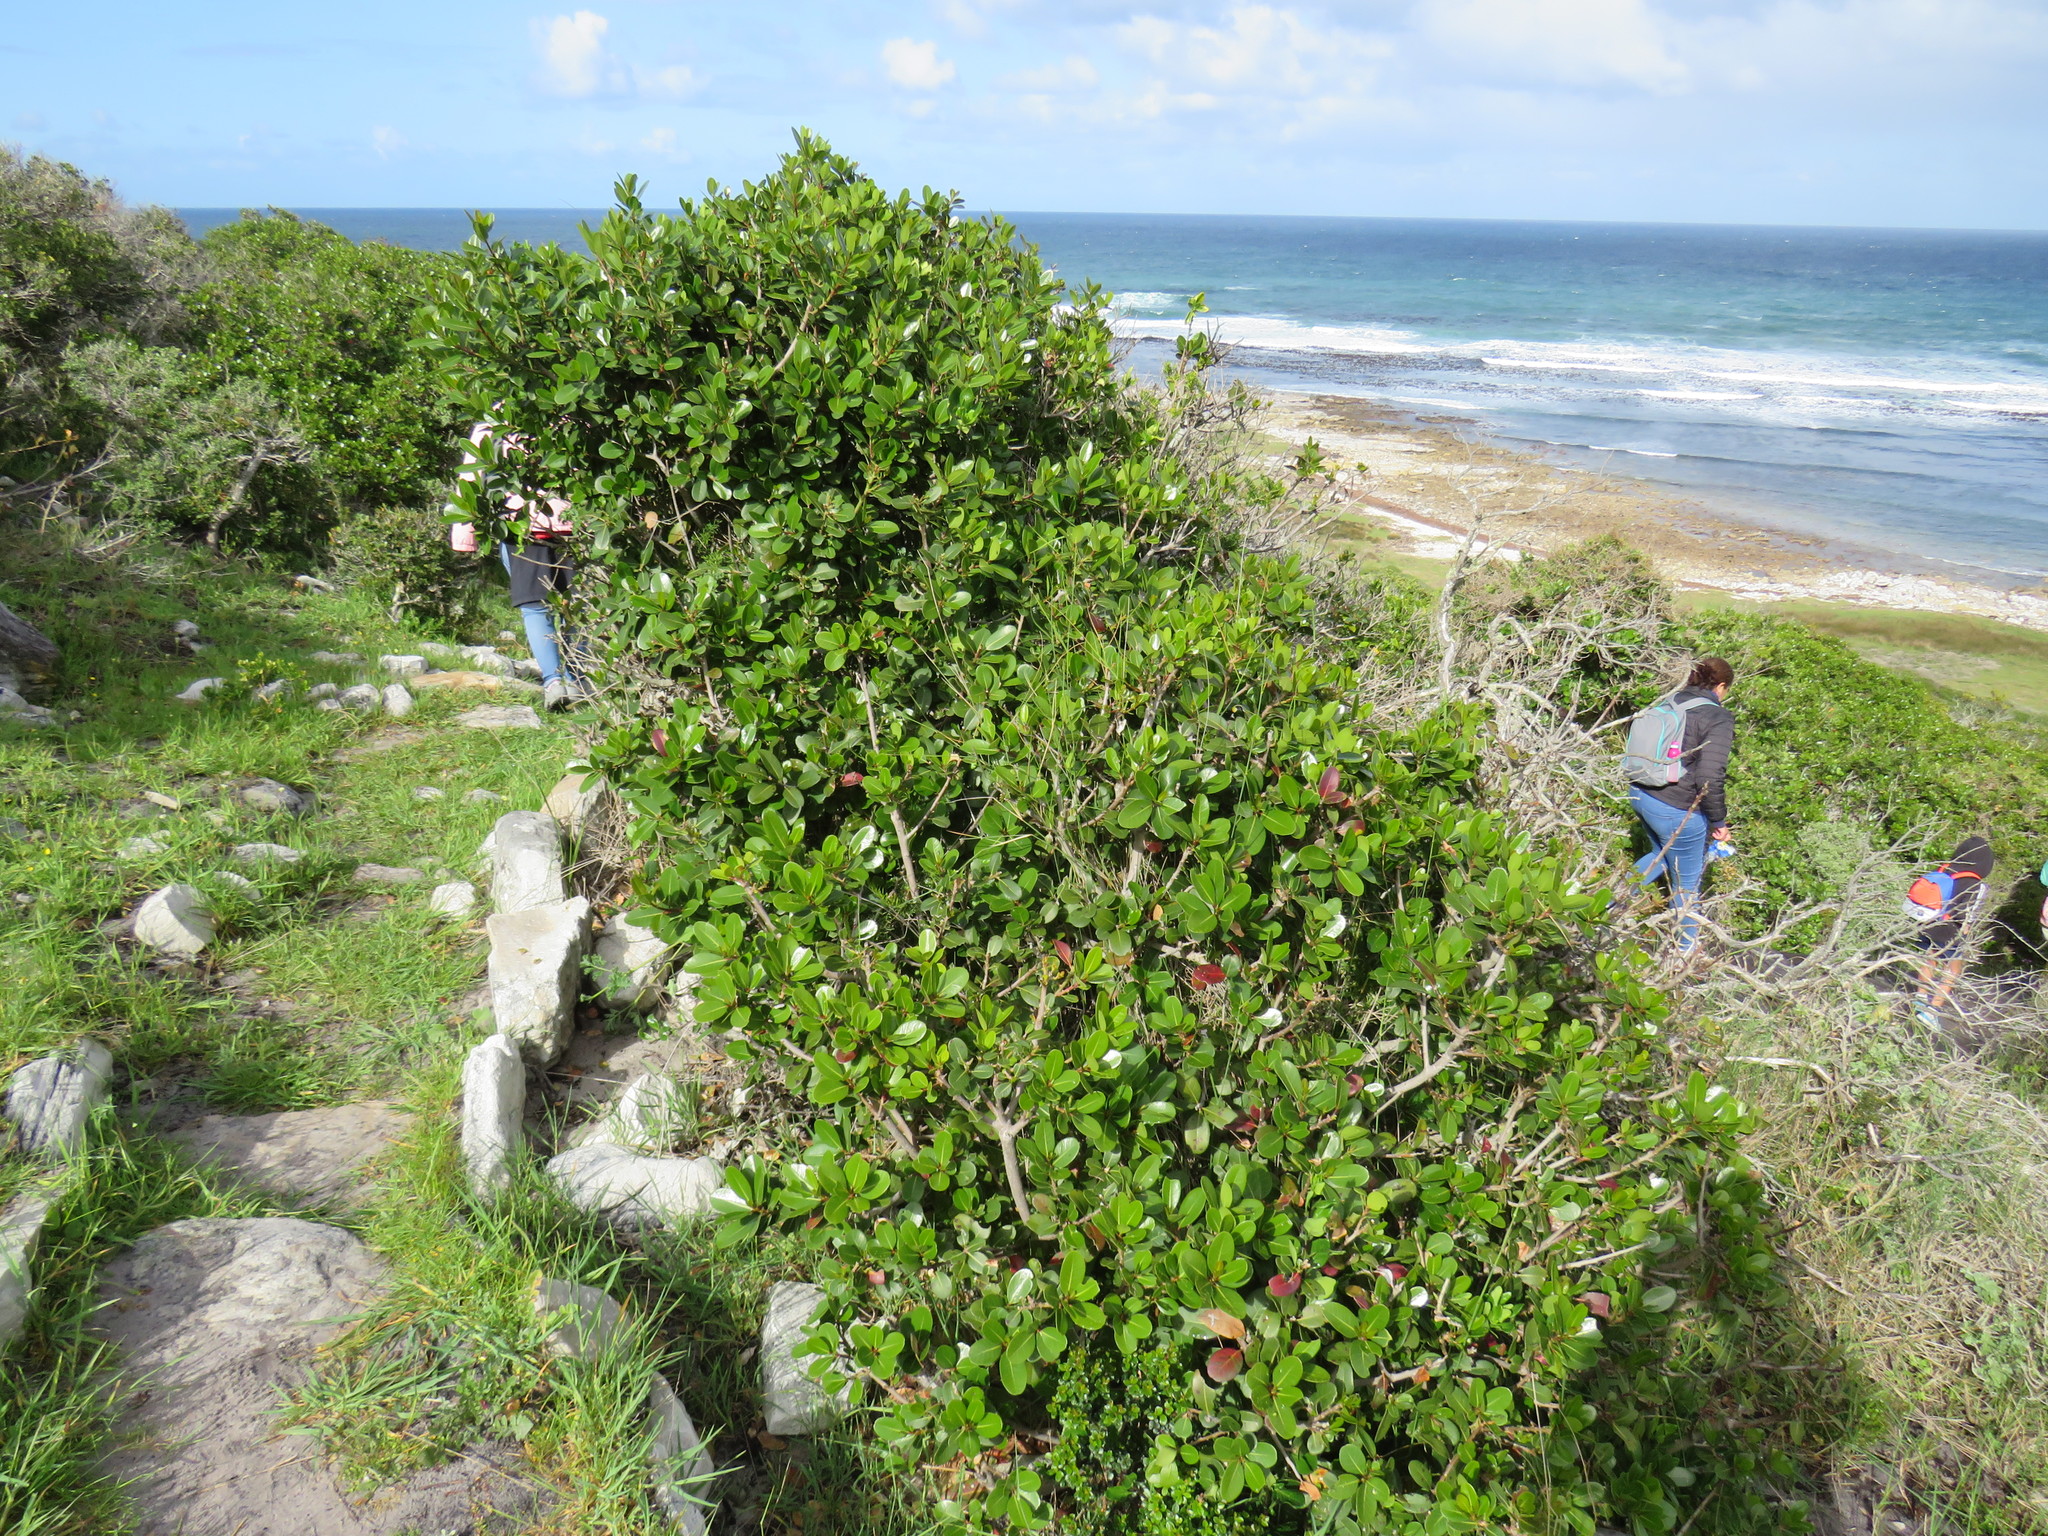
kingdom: Plantae
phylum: Tracheophyta
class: Magnoliopsida
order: Ericales
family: Sapotaceae
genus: Sideroxylon
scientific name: Sideroxylon inerme
